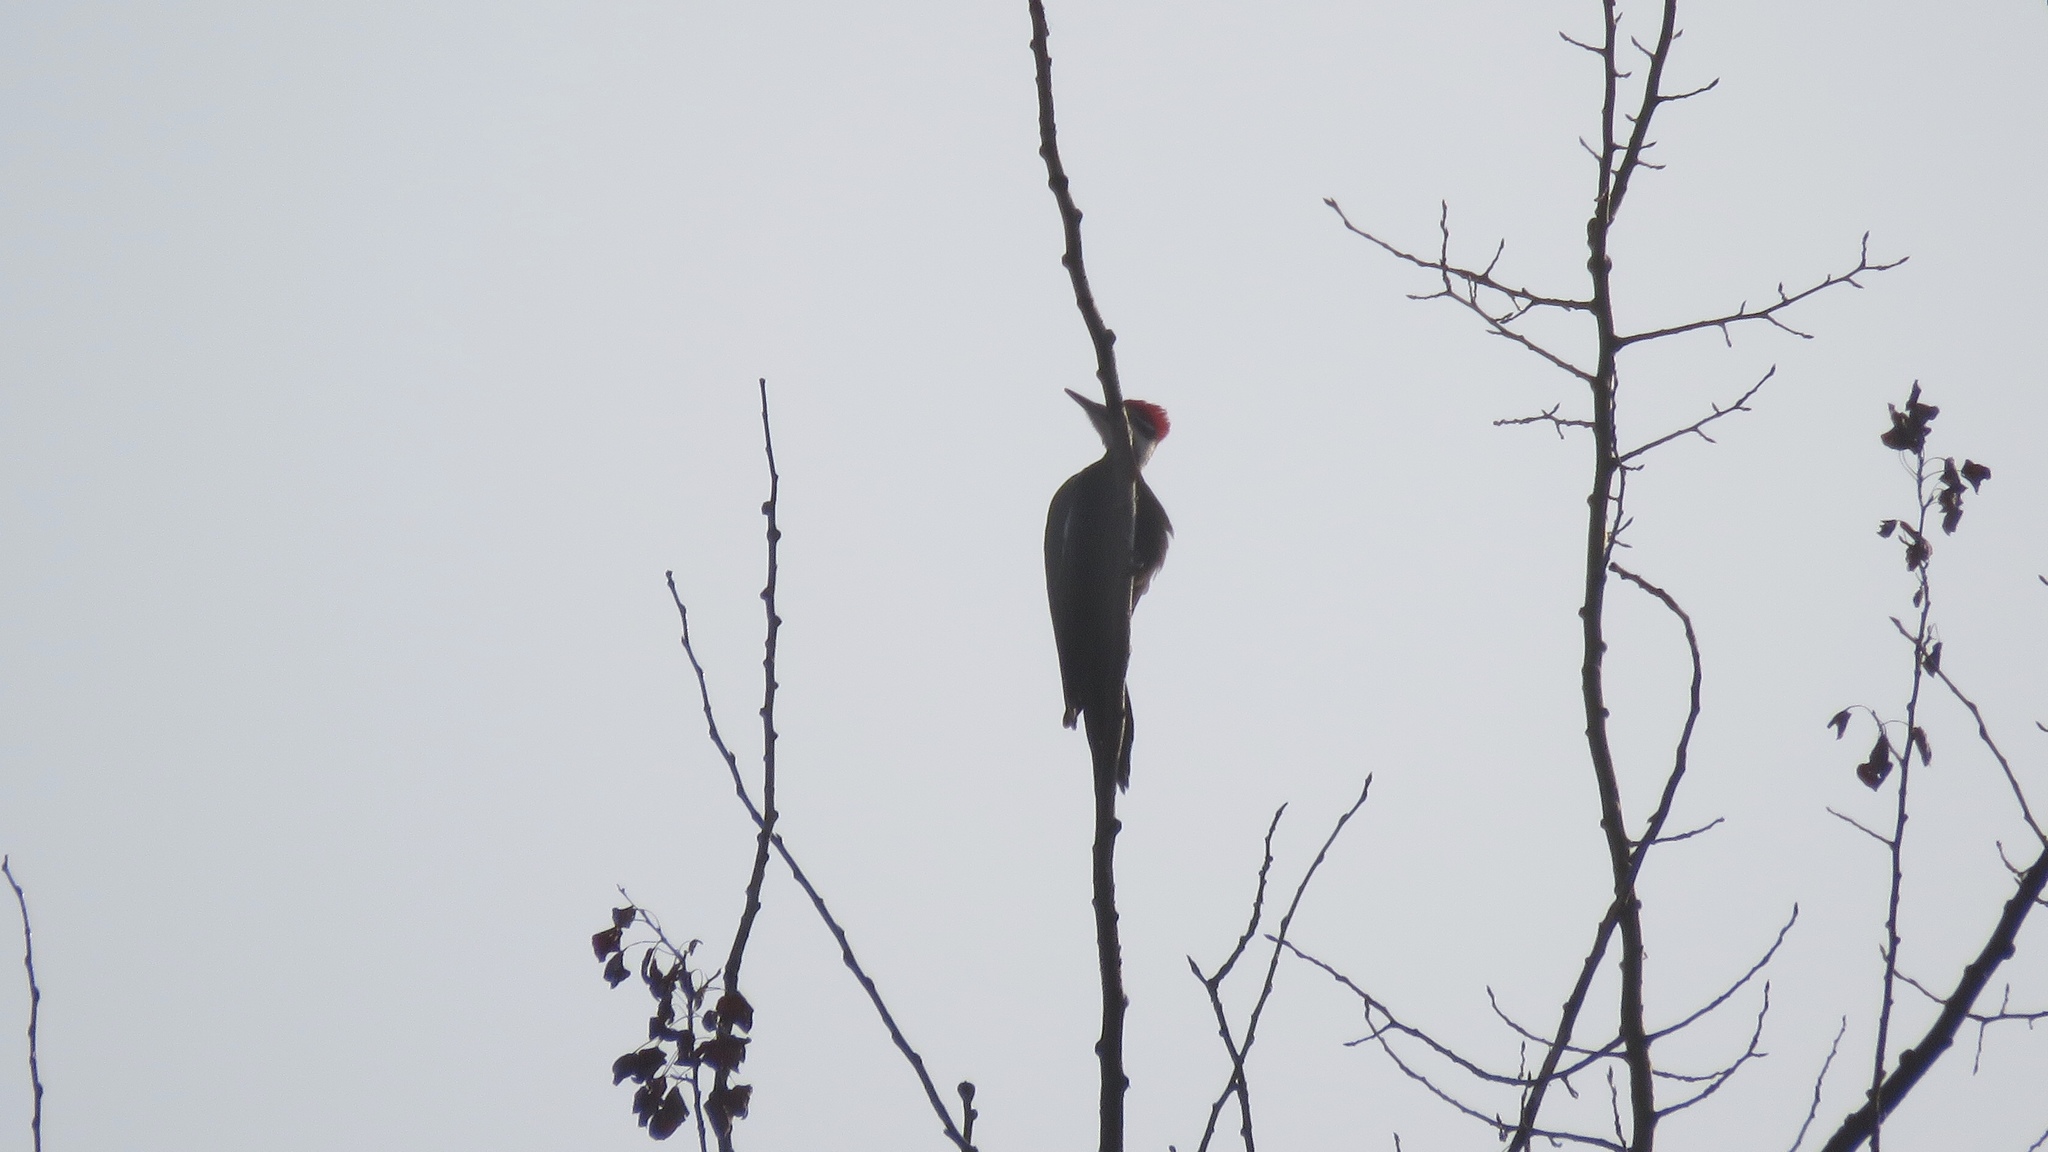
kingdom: Animalia
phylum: Chordata
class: Aves
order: Piciformes
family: Picidae
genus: Dryocopus
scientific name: Dryocopus pileatus
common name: Pileated woodpecker
